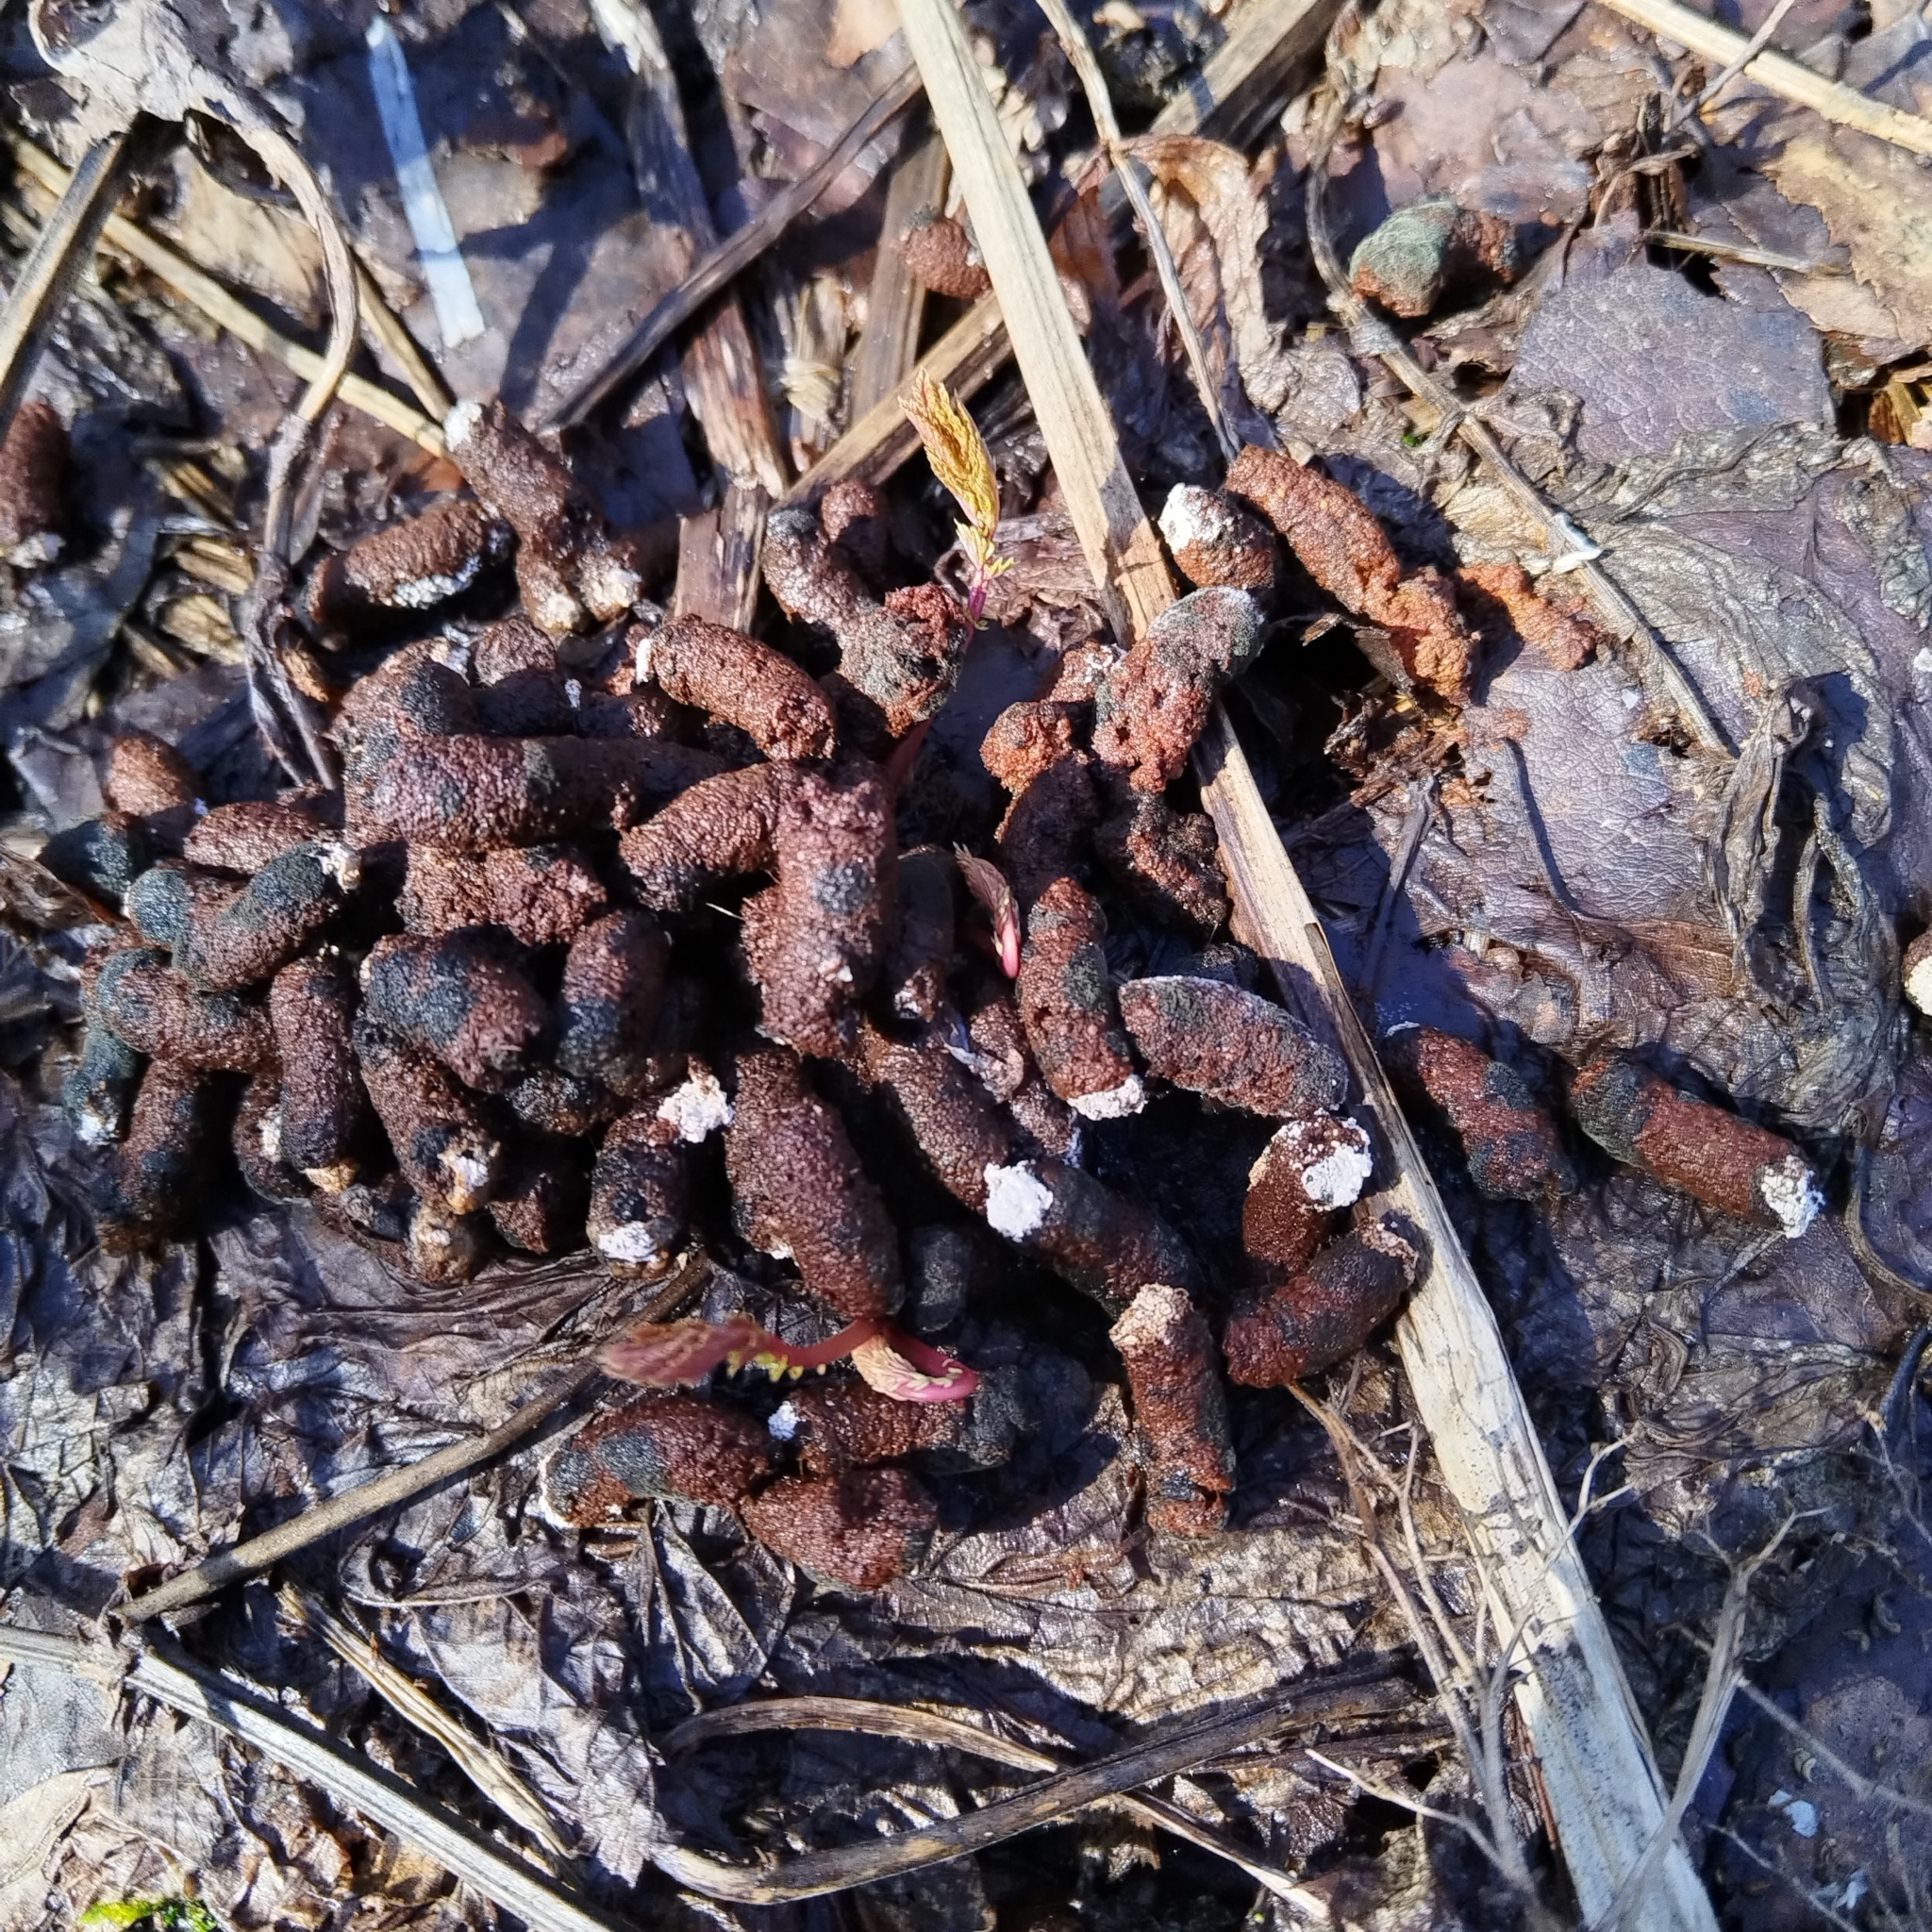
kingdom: Animalia
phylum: Chordata
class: Aves
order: Galliformes
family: Phasianidae
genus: Perdix
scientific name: Perdix perdix
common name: Grey partridge
